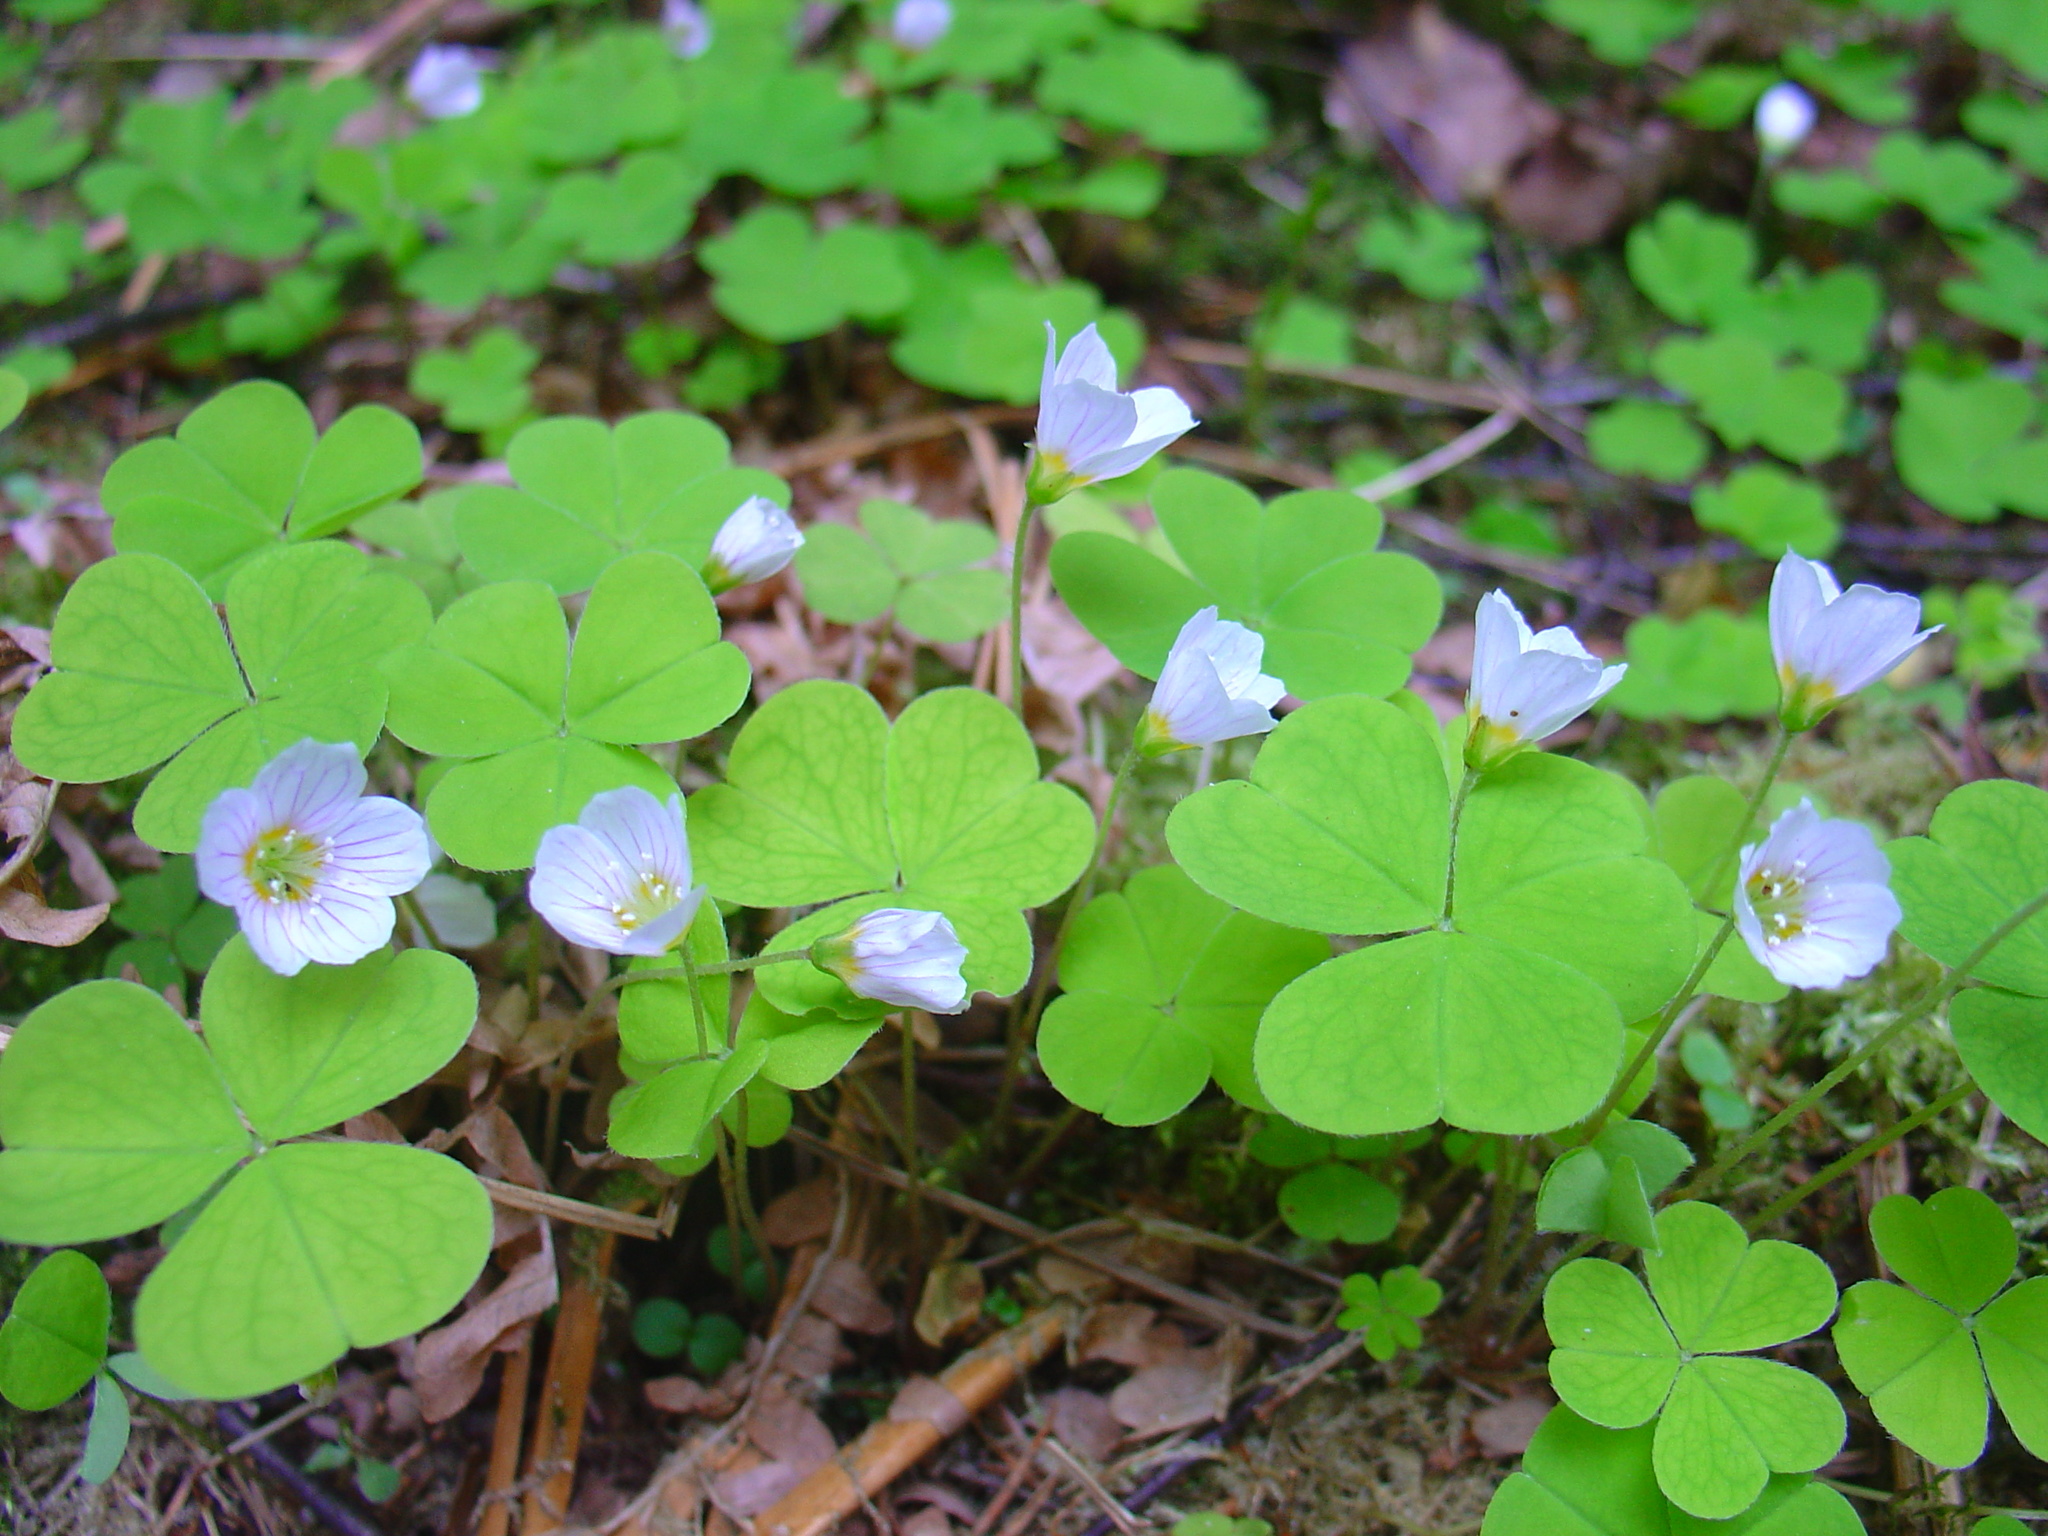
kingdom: Plantae
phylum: Tracheophyta
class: Magnoliopsida
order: Oxalidales
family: Oxalidaceae
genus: Oxalis
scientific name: Oxalis acetosella
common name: Wood-sorrel
